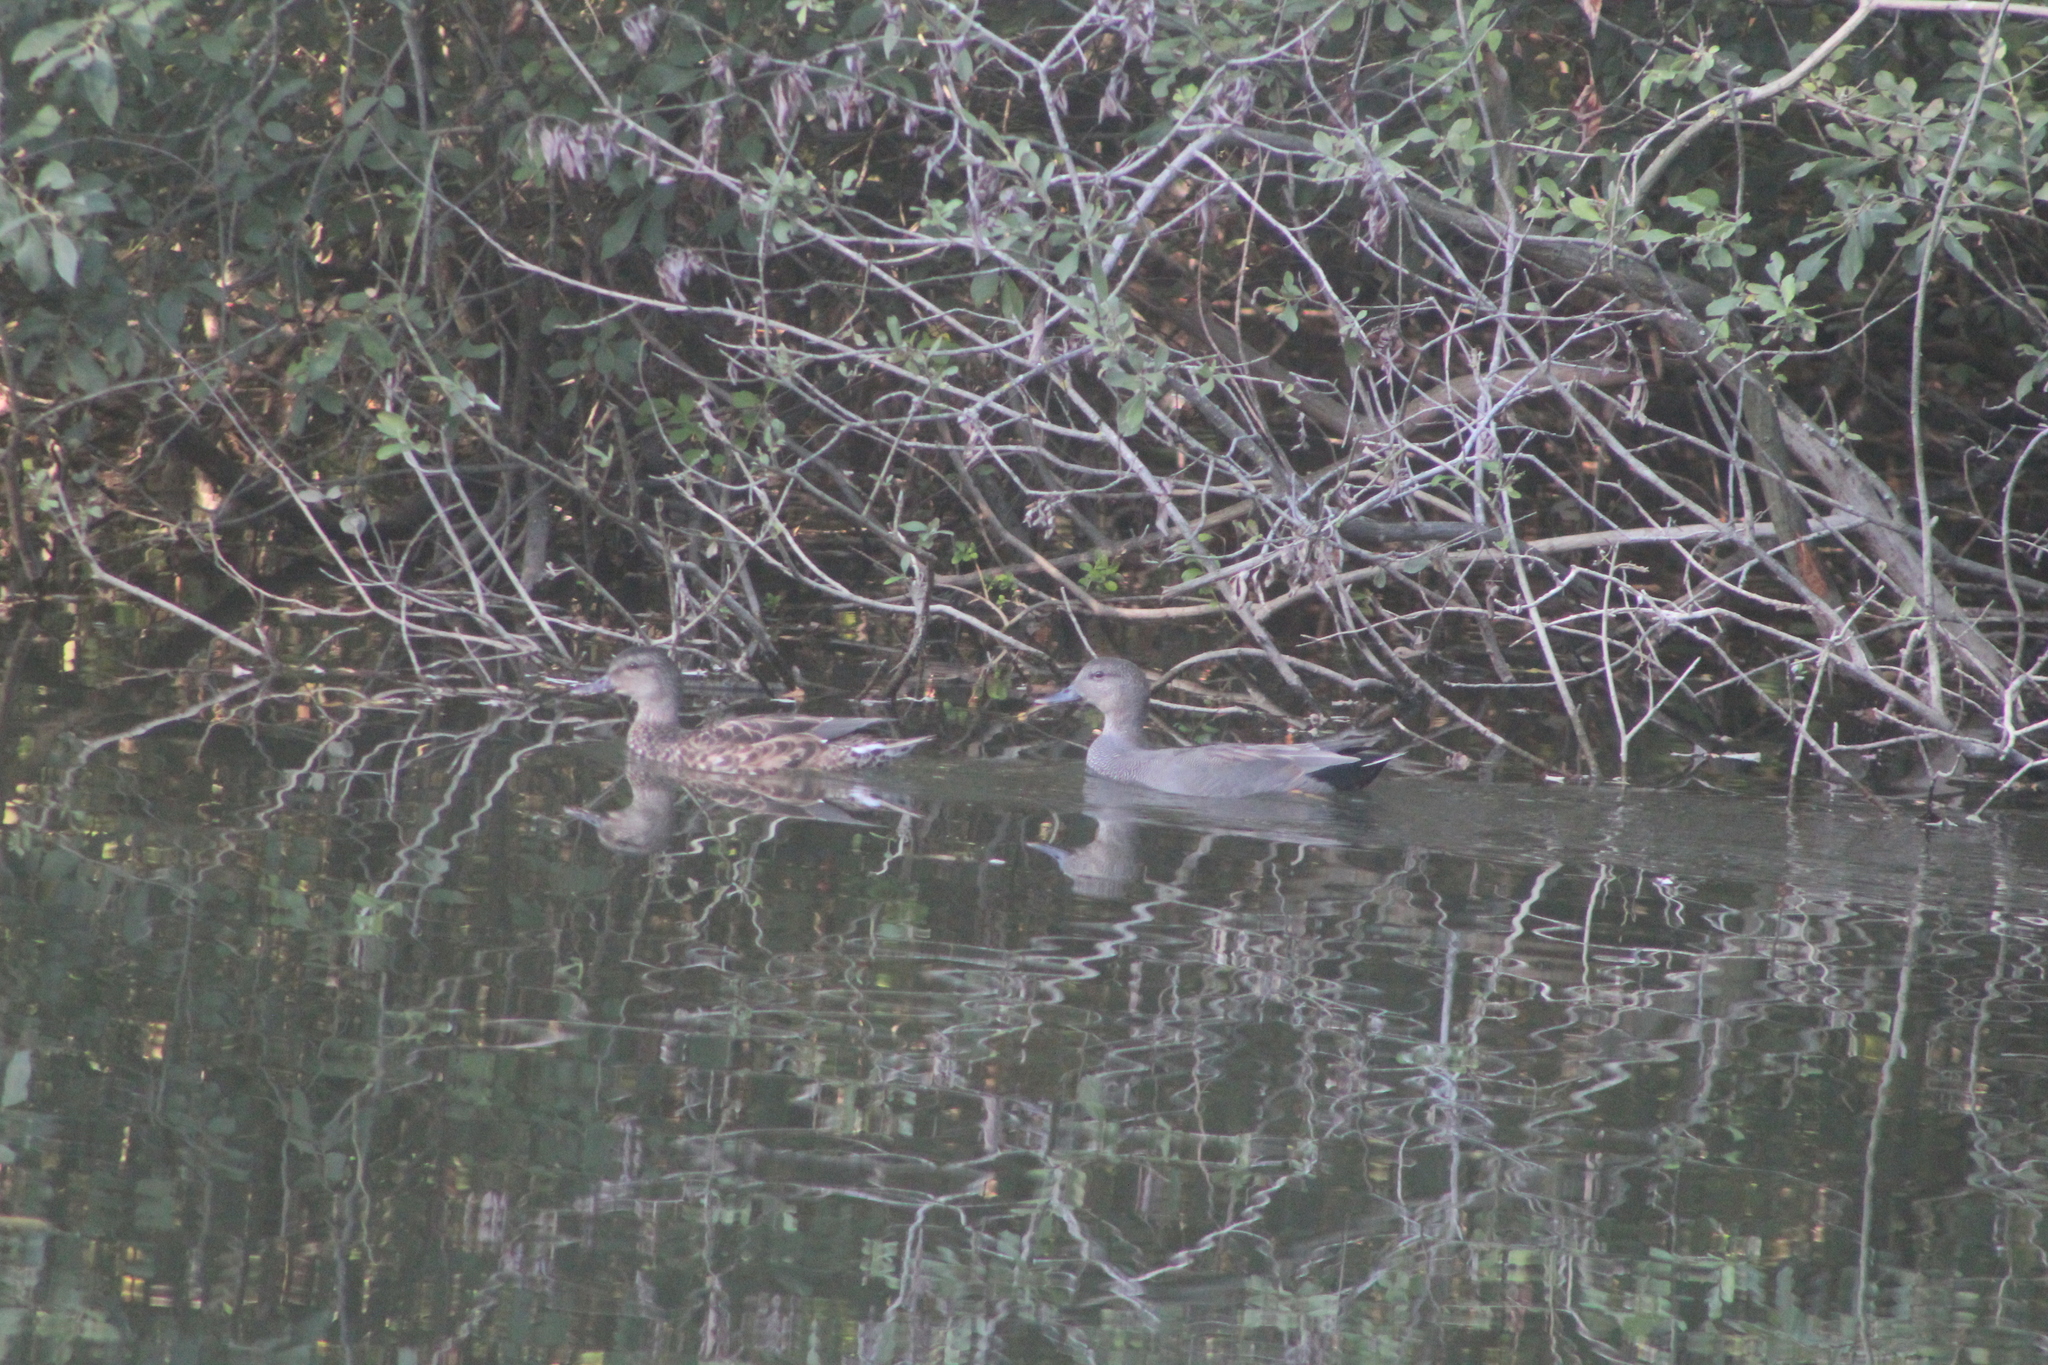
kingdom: Animalia
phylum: Chordata
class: Aves
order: Anseriformes
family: Anatidae
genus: Mareca
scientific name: Mareca strepera
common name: Gadwall
